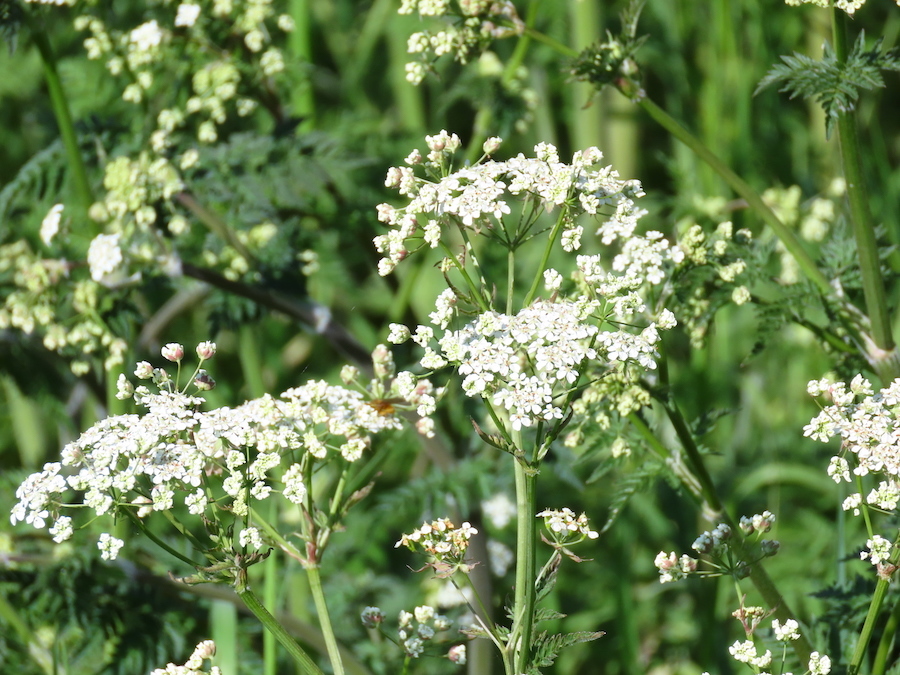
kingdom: Plantae
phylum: Tracheophyta
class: Magnoliopsida
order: Apiales
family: Apiaceae
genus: Anthriscus
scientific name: Anthriscus sylvestris
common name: Cow parsley
